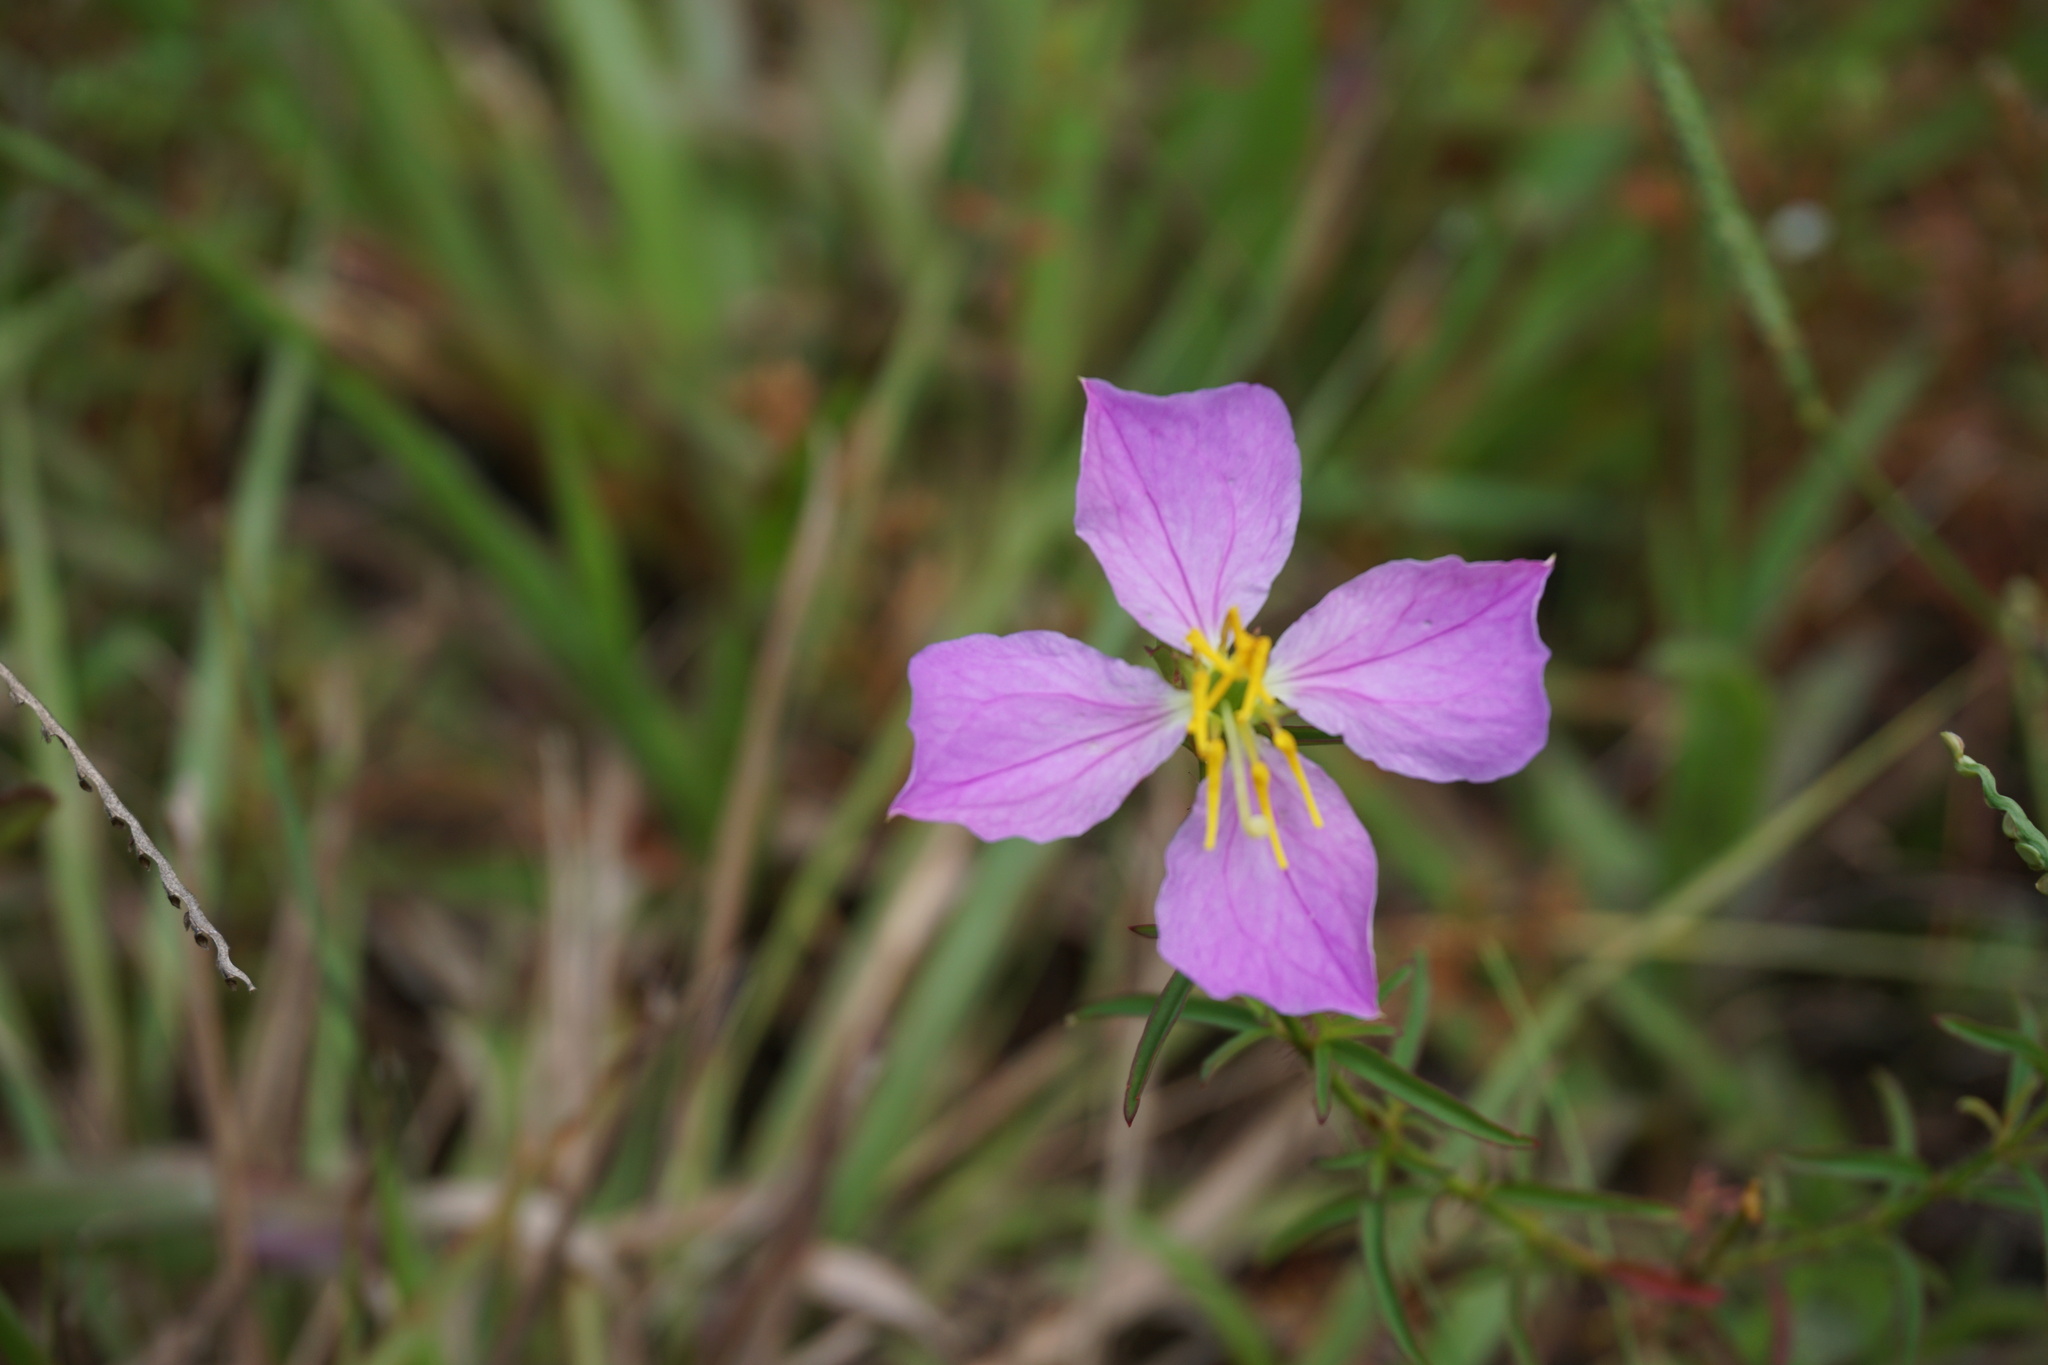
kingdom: Plantae
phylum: Tracheophyta
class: Magnoliopsida
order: Myrtales
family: Melastomataceae
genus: Rhexia
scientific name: Rhexia cubensis
